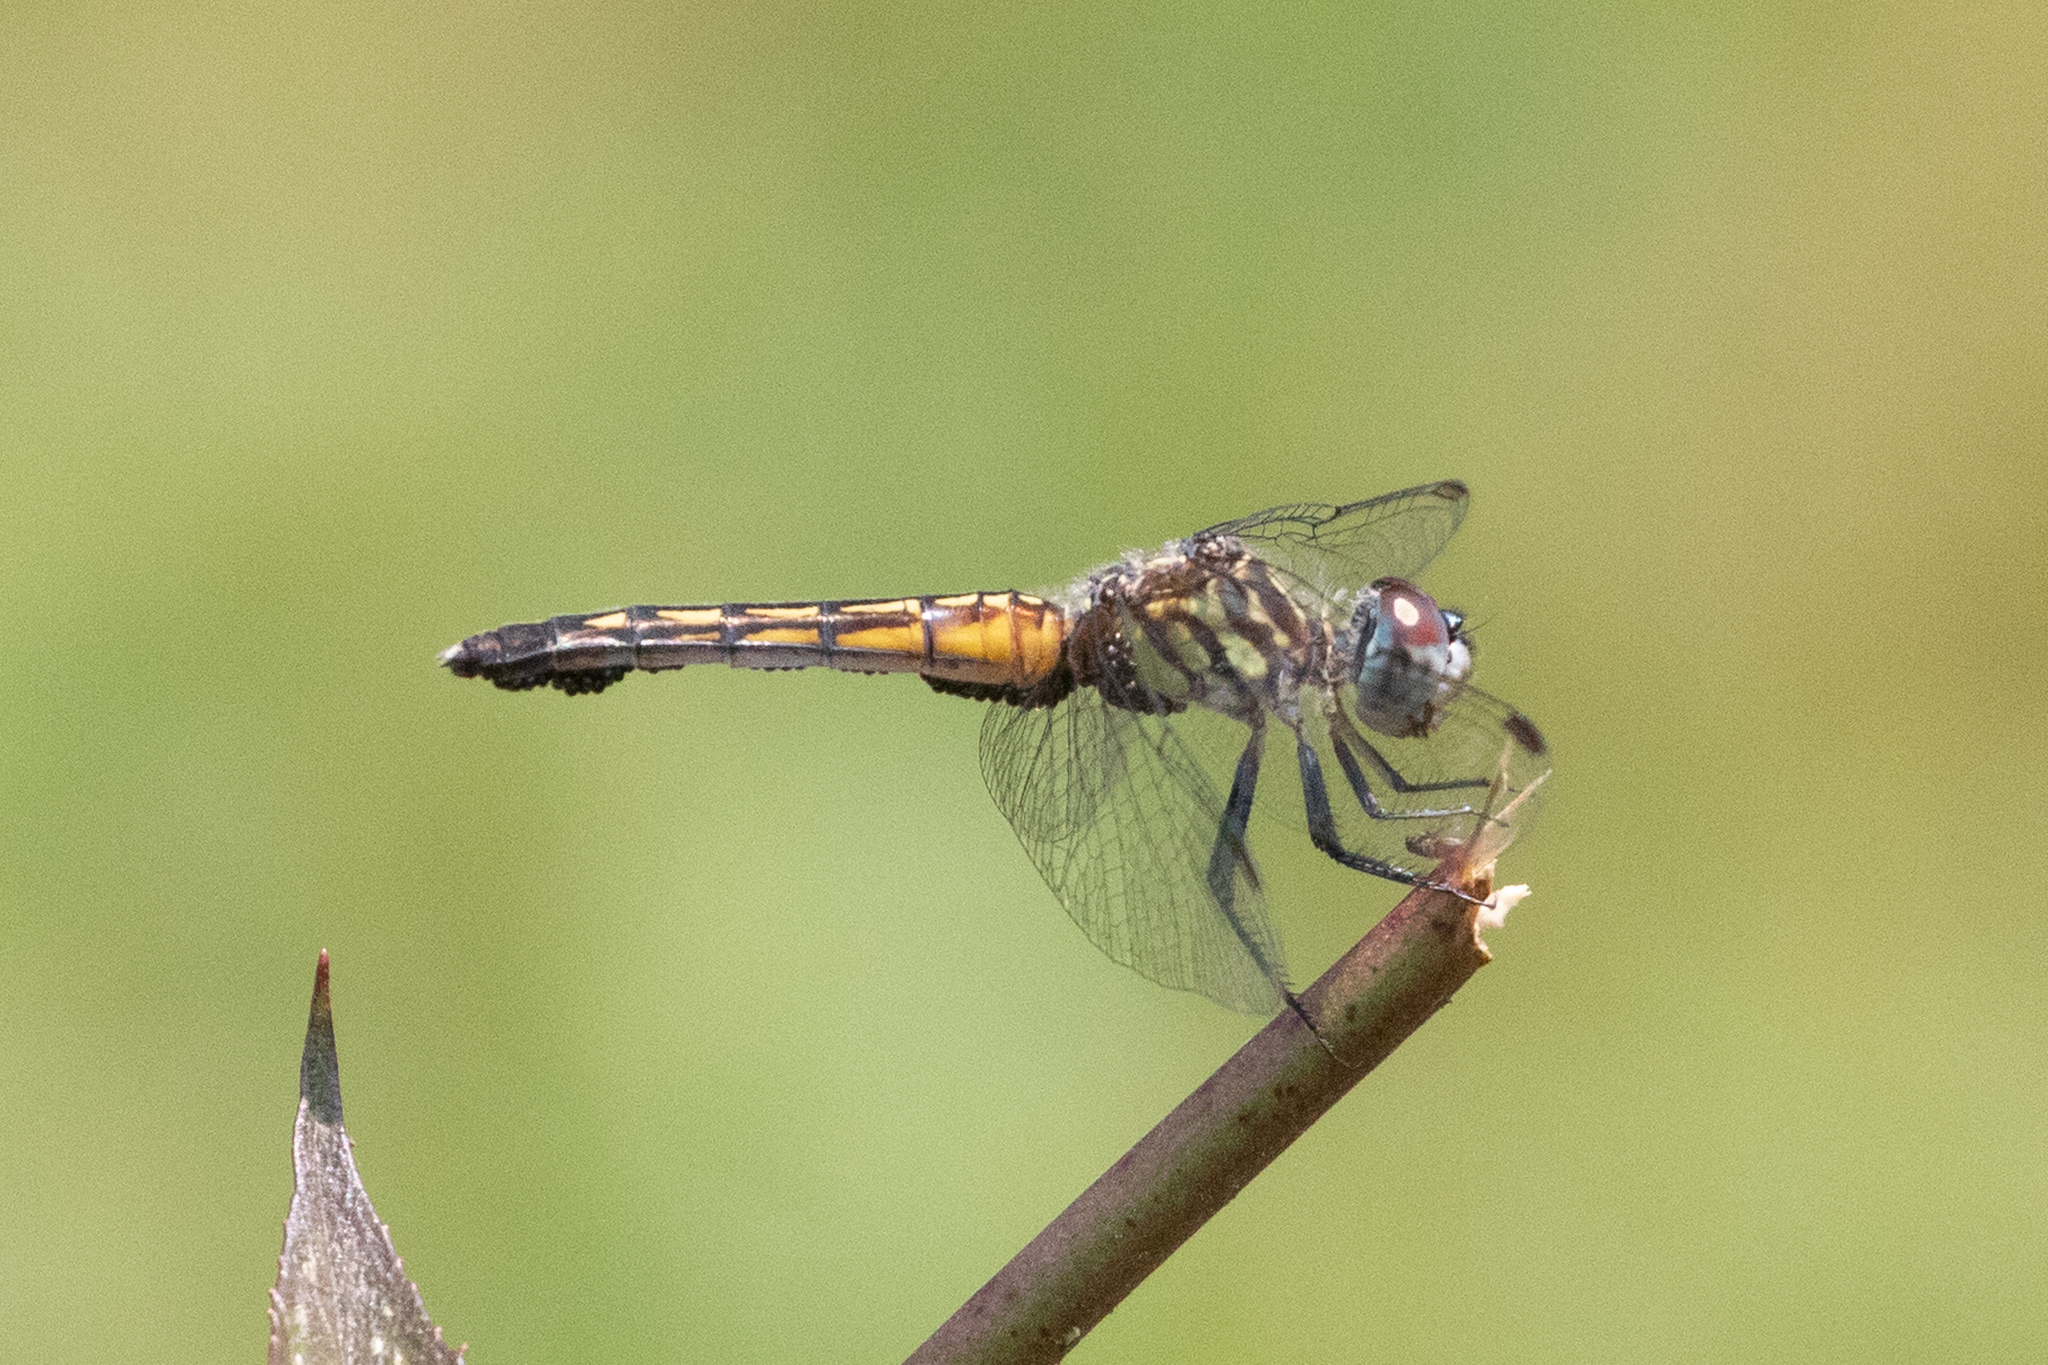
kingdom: Animalia
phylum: Arthropoda
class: Insecta
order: Odonata
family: Libellulidae
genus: Pachydiplax
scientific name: Pachydiplax longipennis
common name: Blue dasher
